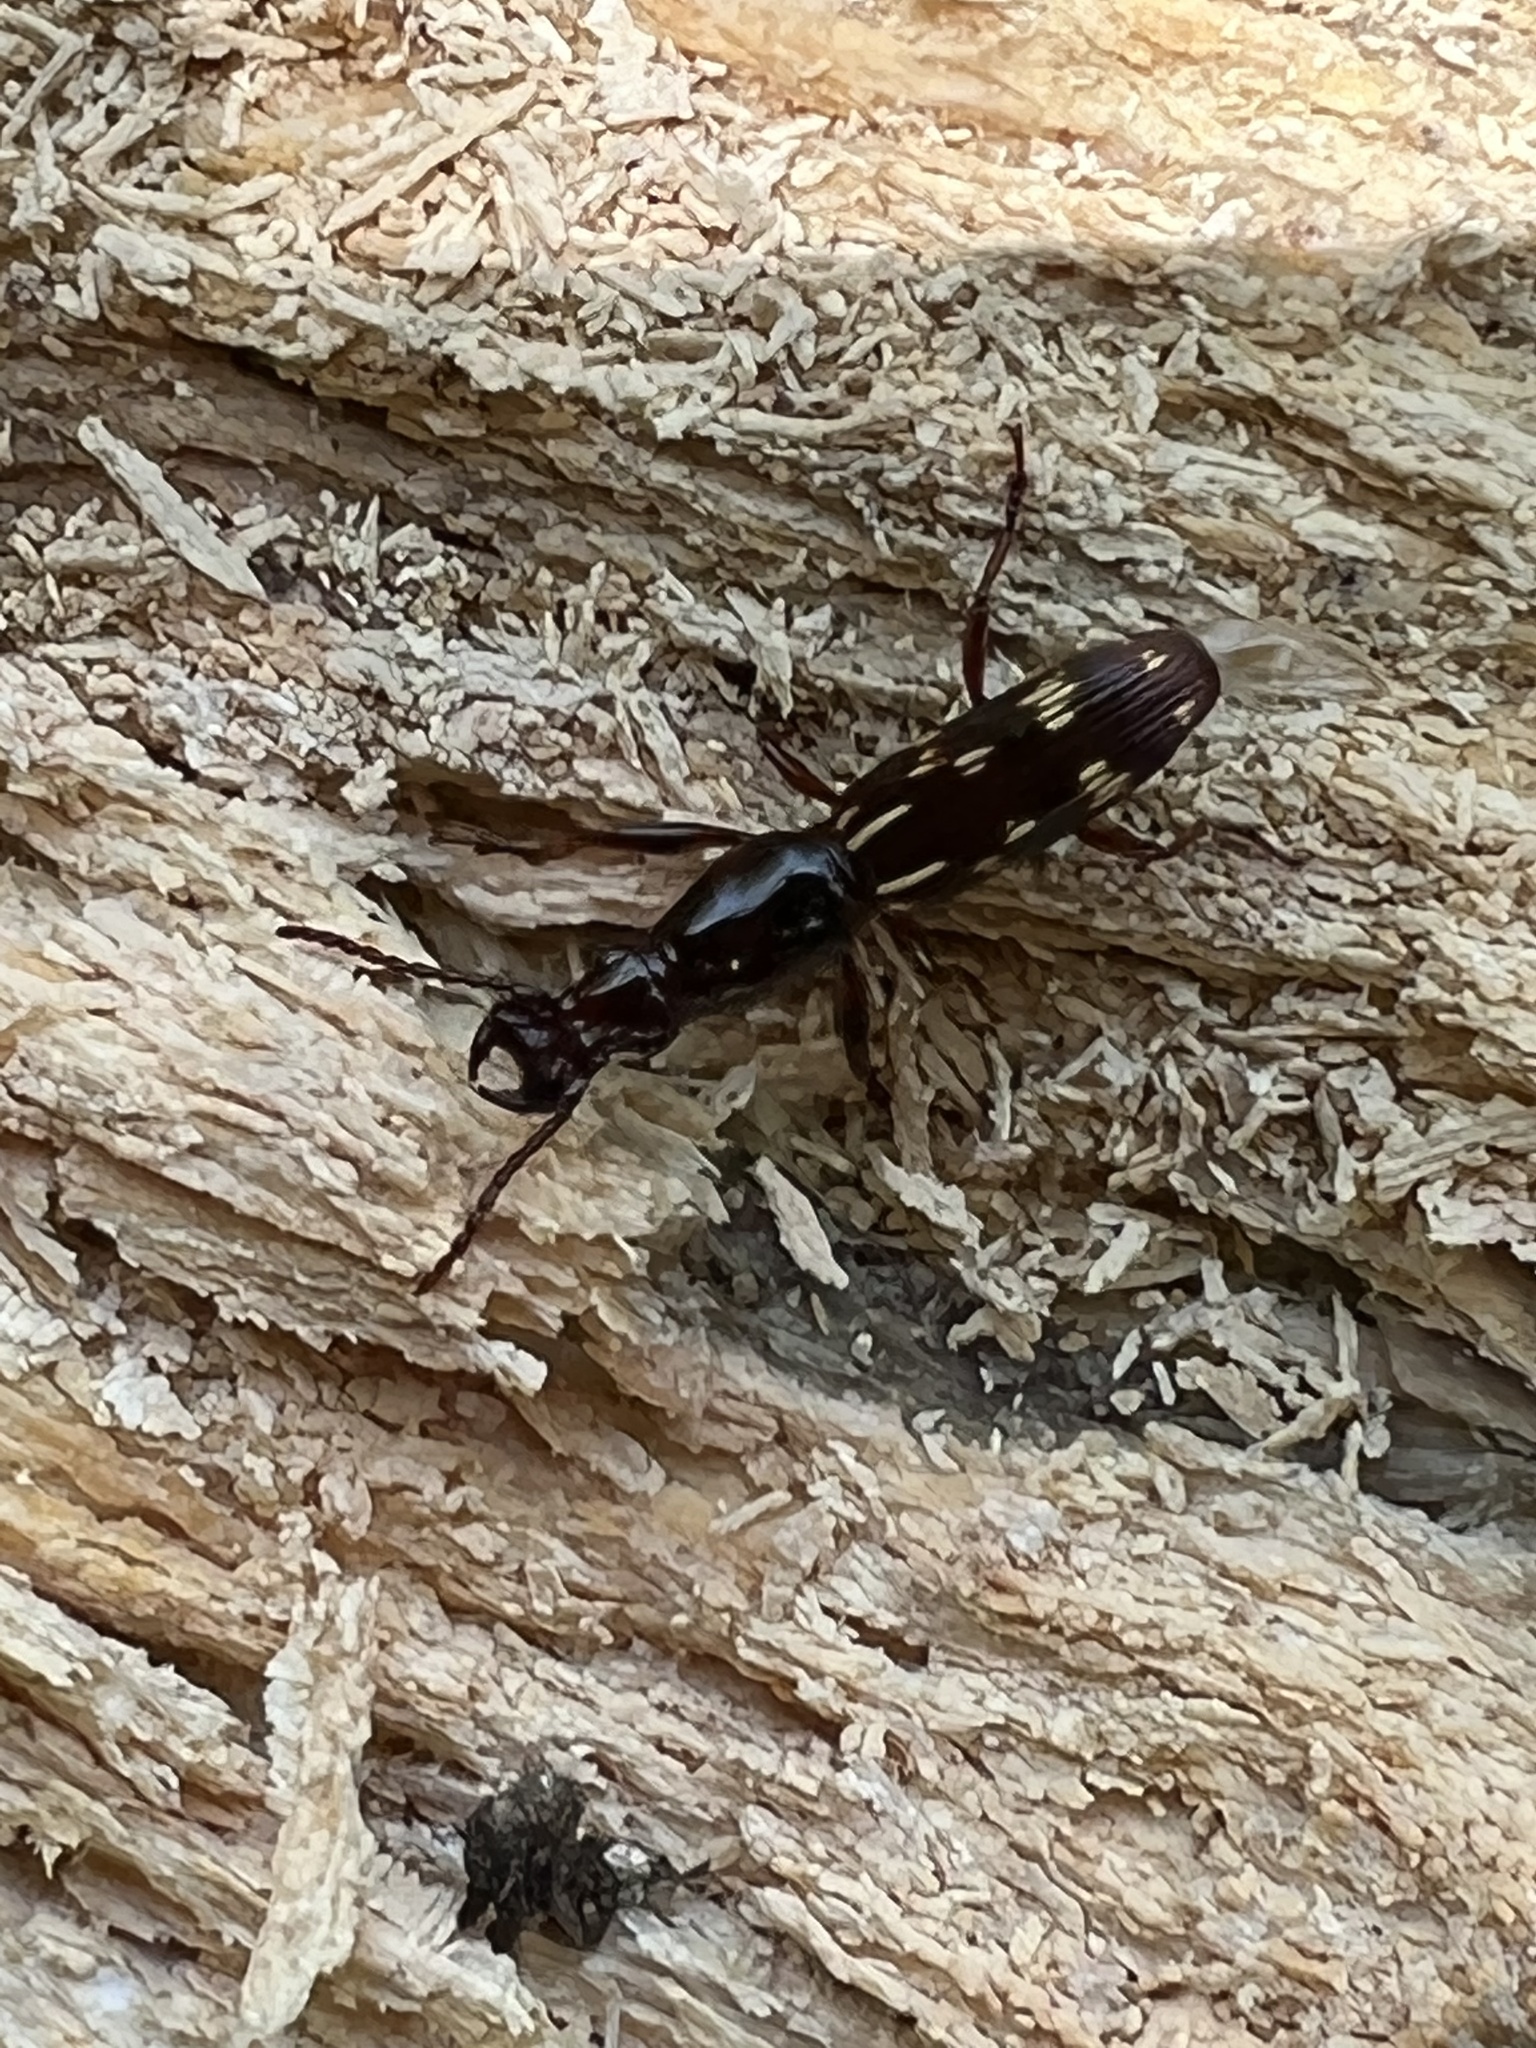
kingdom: Animalia
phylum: Arthropoda
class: Insecta
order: Coleoptera
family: Brentidae
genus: Arrenodes
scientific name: Arrenodes minutus
